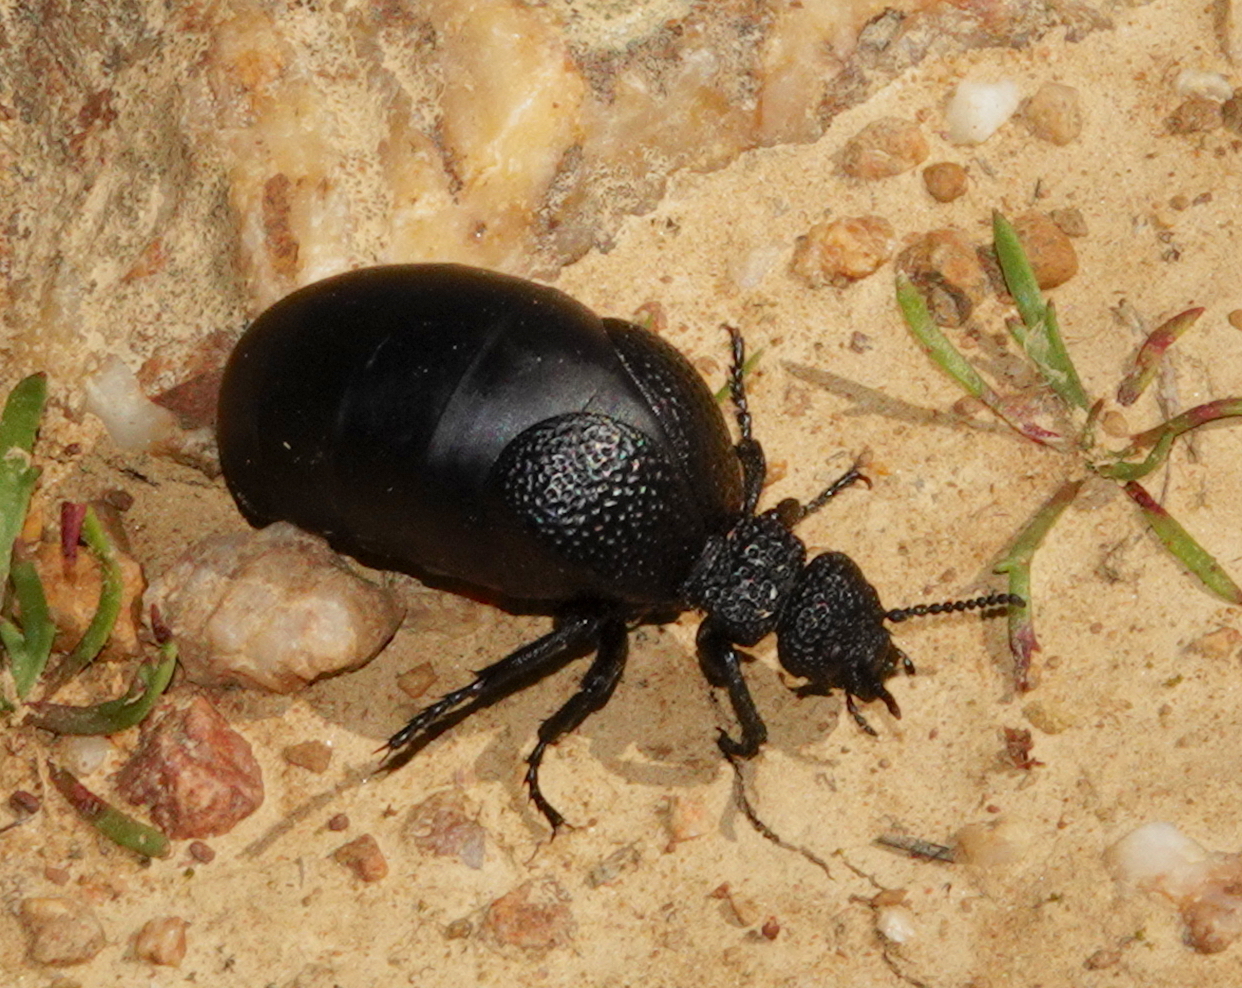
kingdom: Animalia
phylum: Arthropoda
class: Insecta
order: Coleoptera
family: Meloidae
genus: Meloe
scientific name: Meloe tuccius
